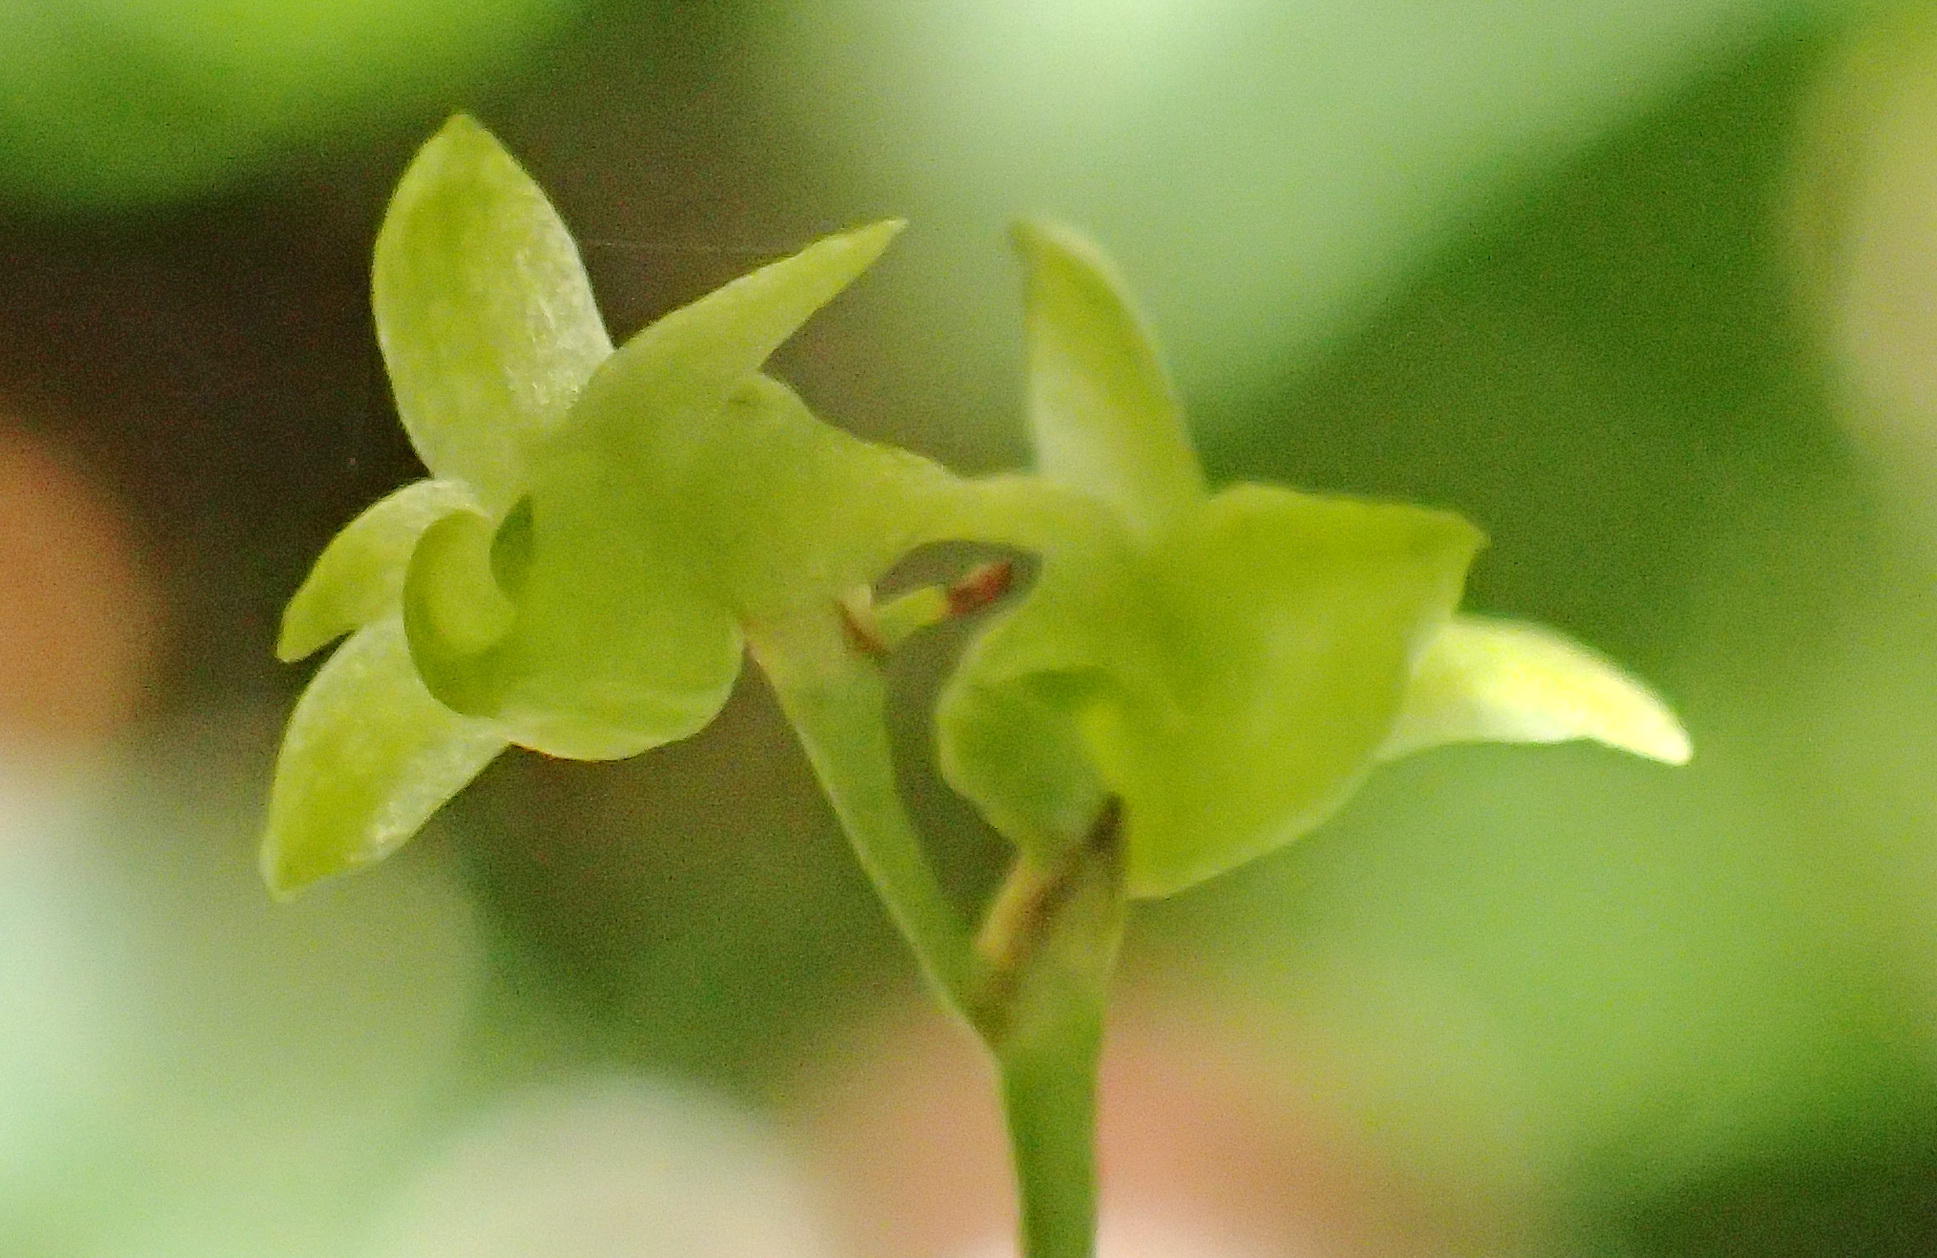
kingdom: Plantae
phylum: Tracheophyta
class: Liliopsida
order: Asparagales
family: Orchidaceae
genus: Angraecum
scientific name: Angraecum sacciferum
